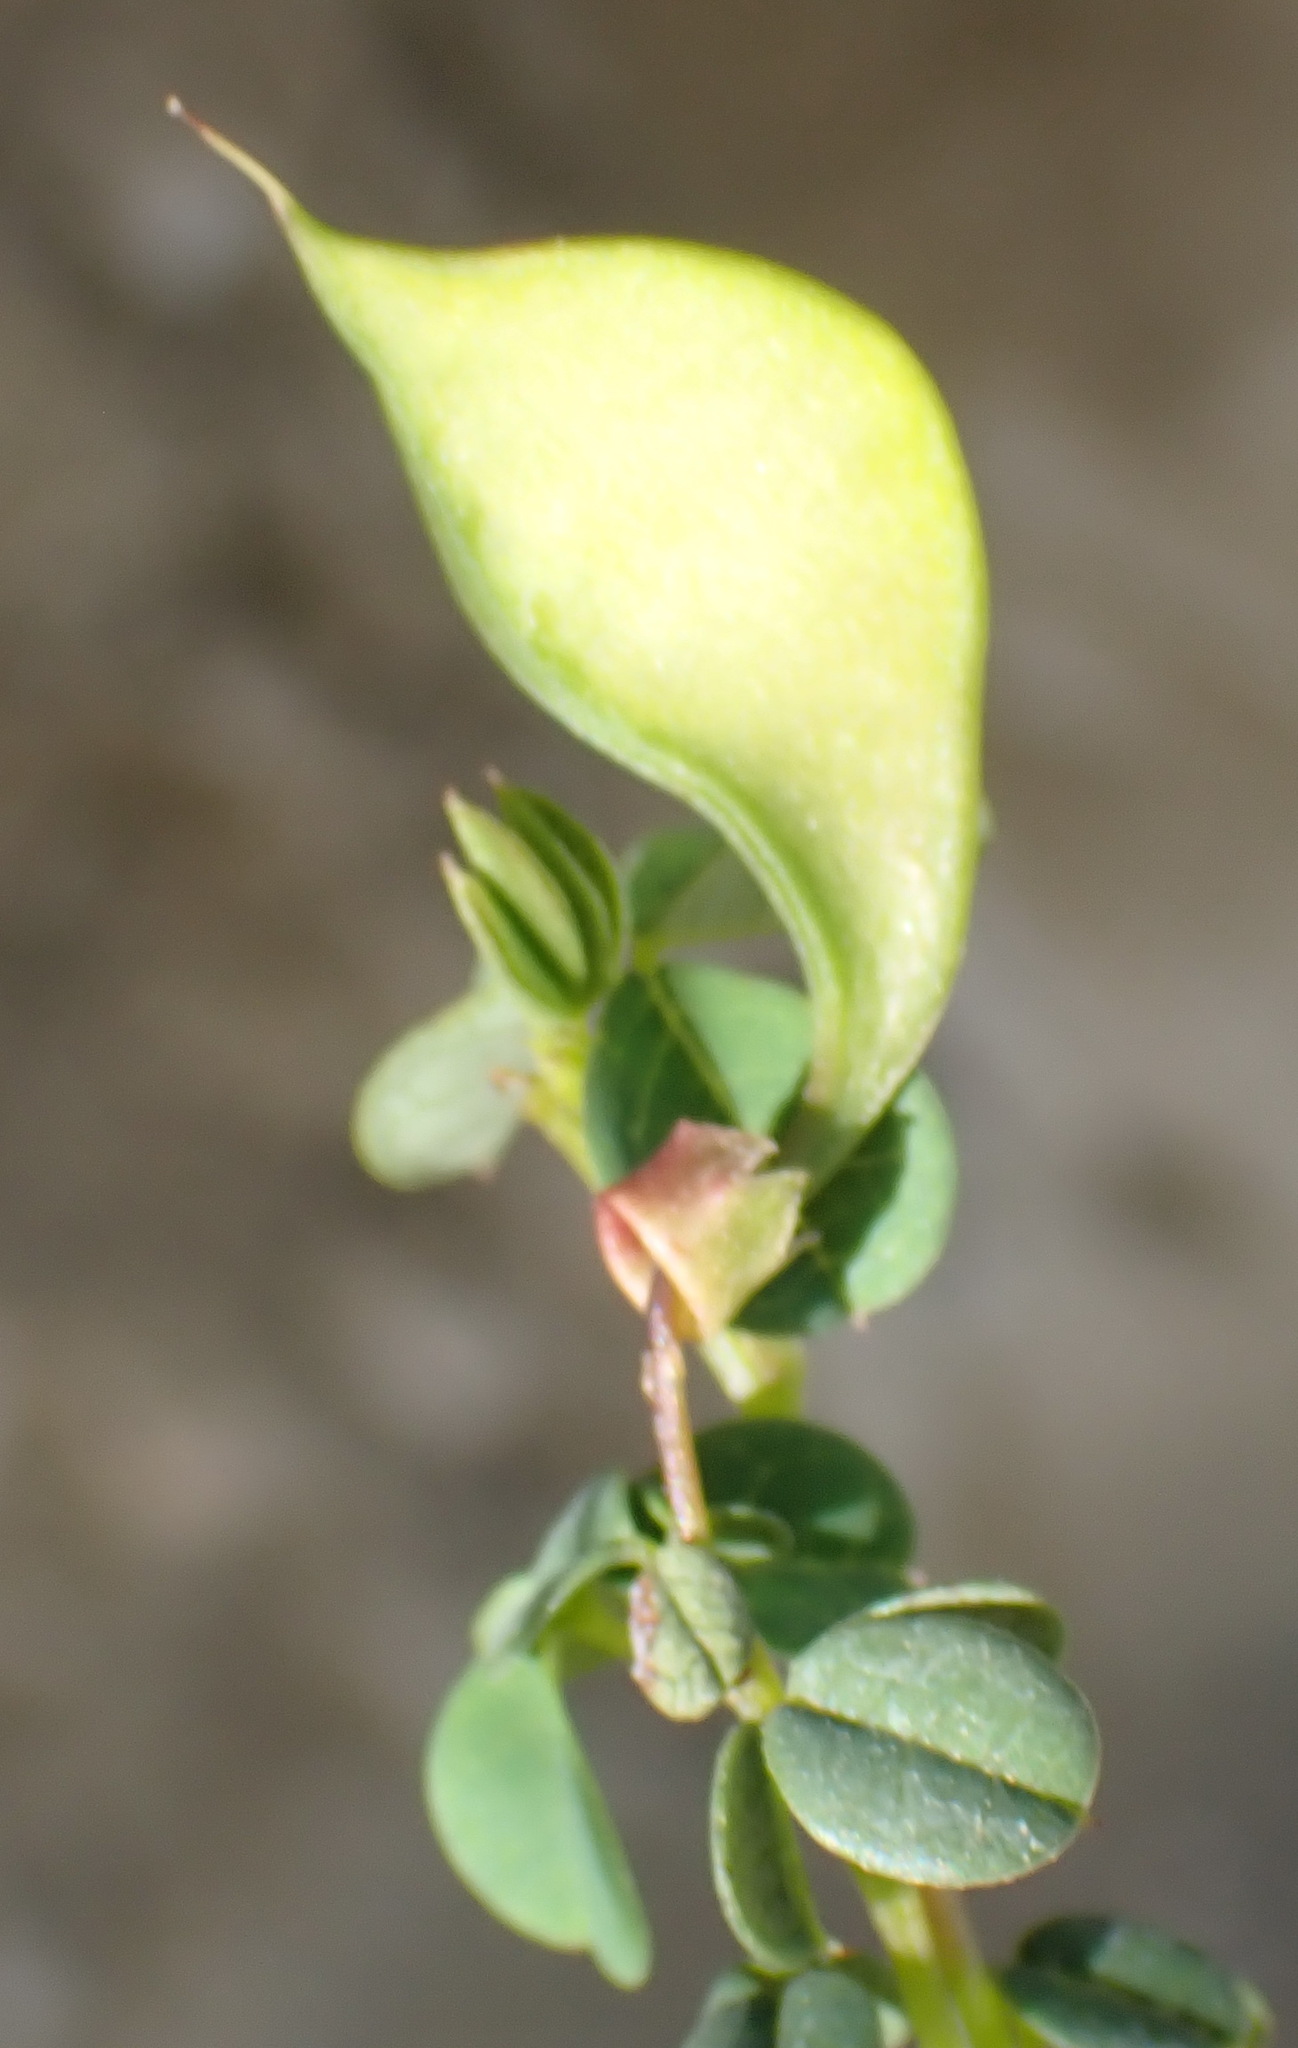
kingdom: Plantae
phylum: Tracheophyta
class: Magnoliopsida
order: Fabales
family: Fabaceae
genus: Hypocalyptus
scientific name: Hypocalyptus oxalidifolius
